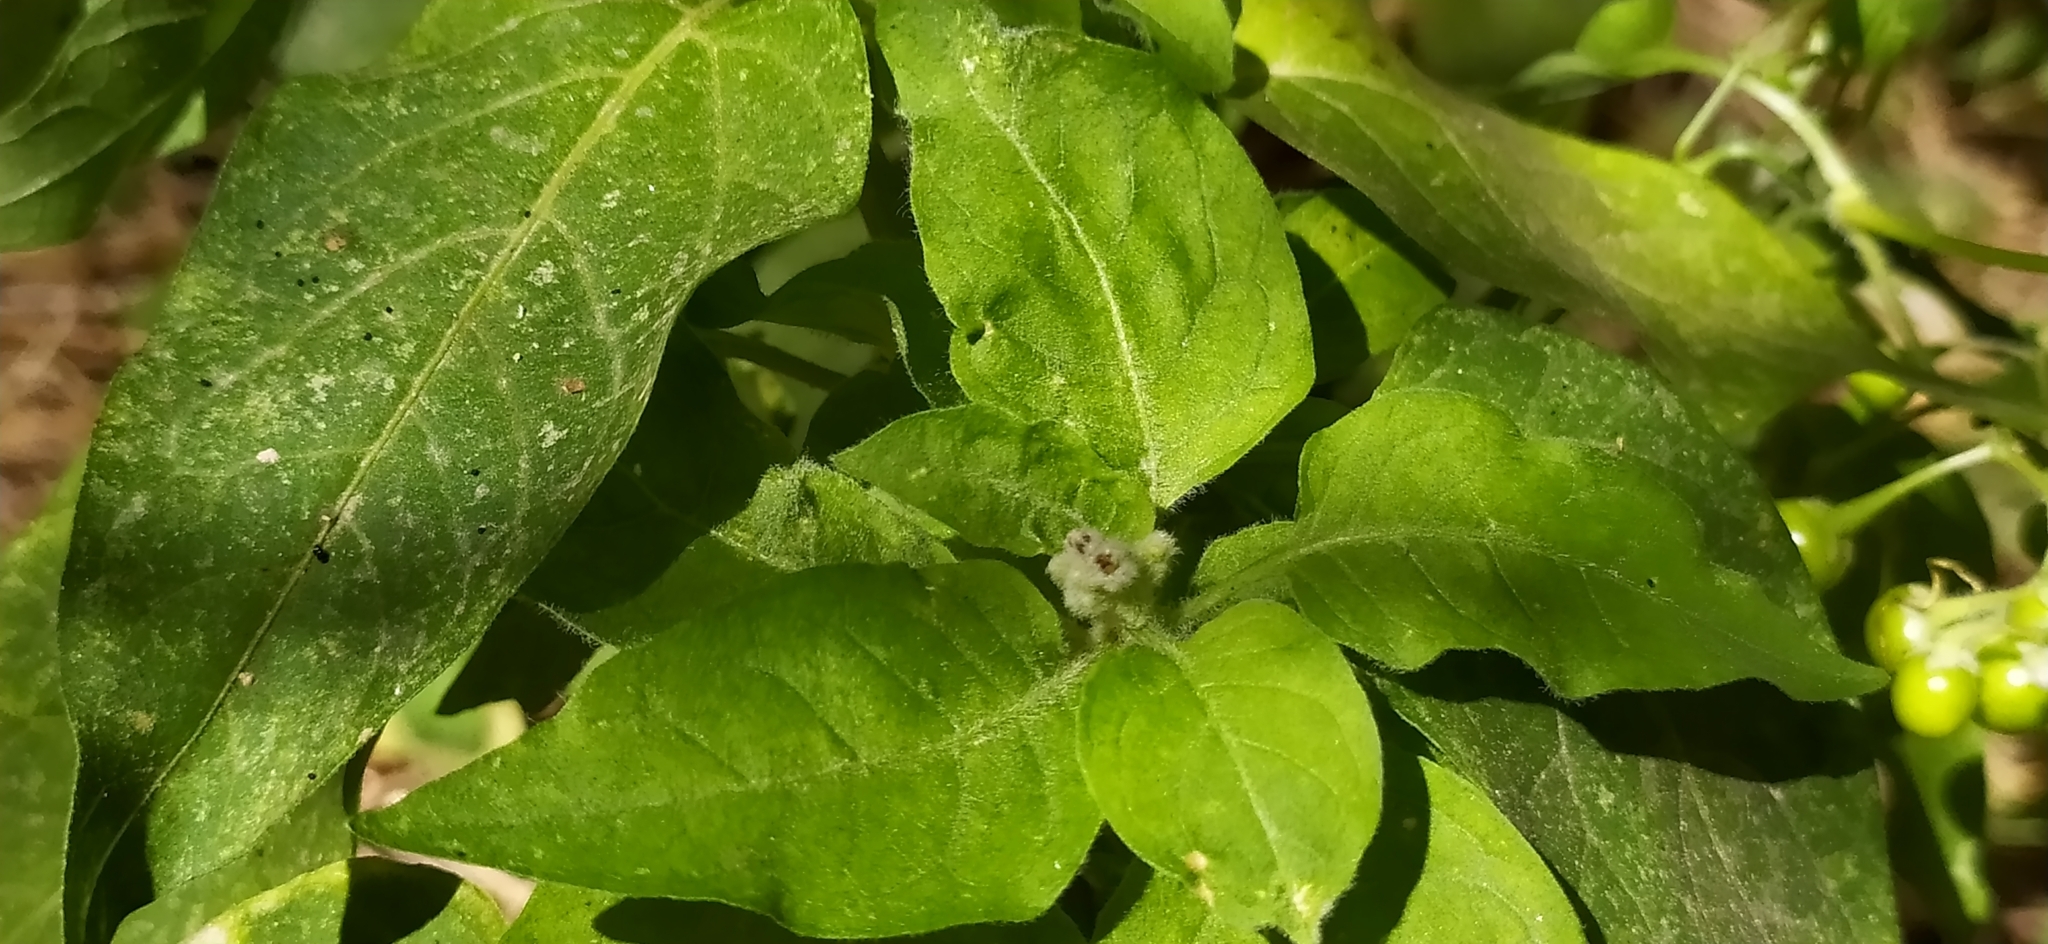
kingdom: Plantae
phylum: Tracheophyta
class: Magnoliopsida
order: Solanales
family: Solanaceae
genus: Solanum
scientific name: Solanum dulcamara
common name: Climbing nightshade
